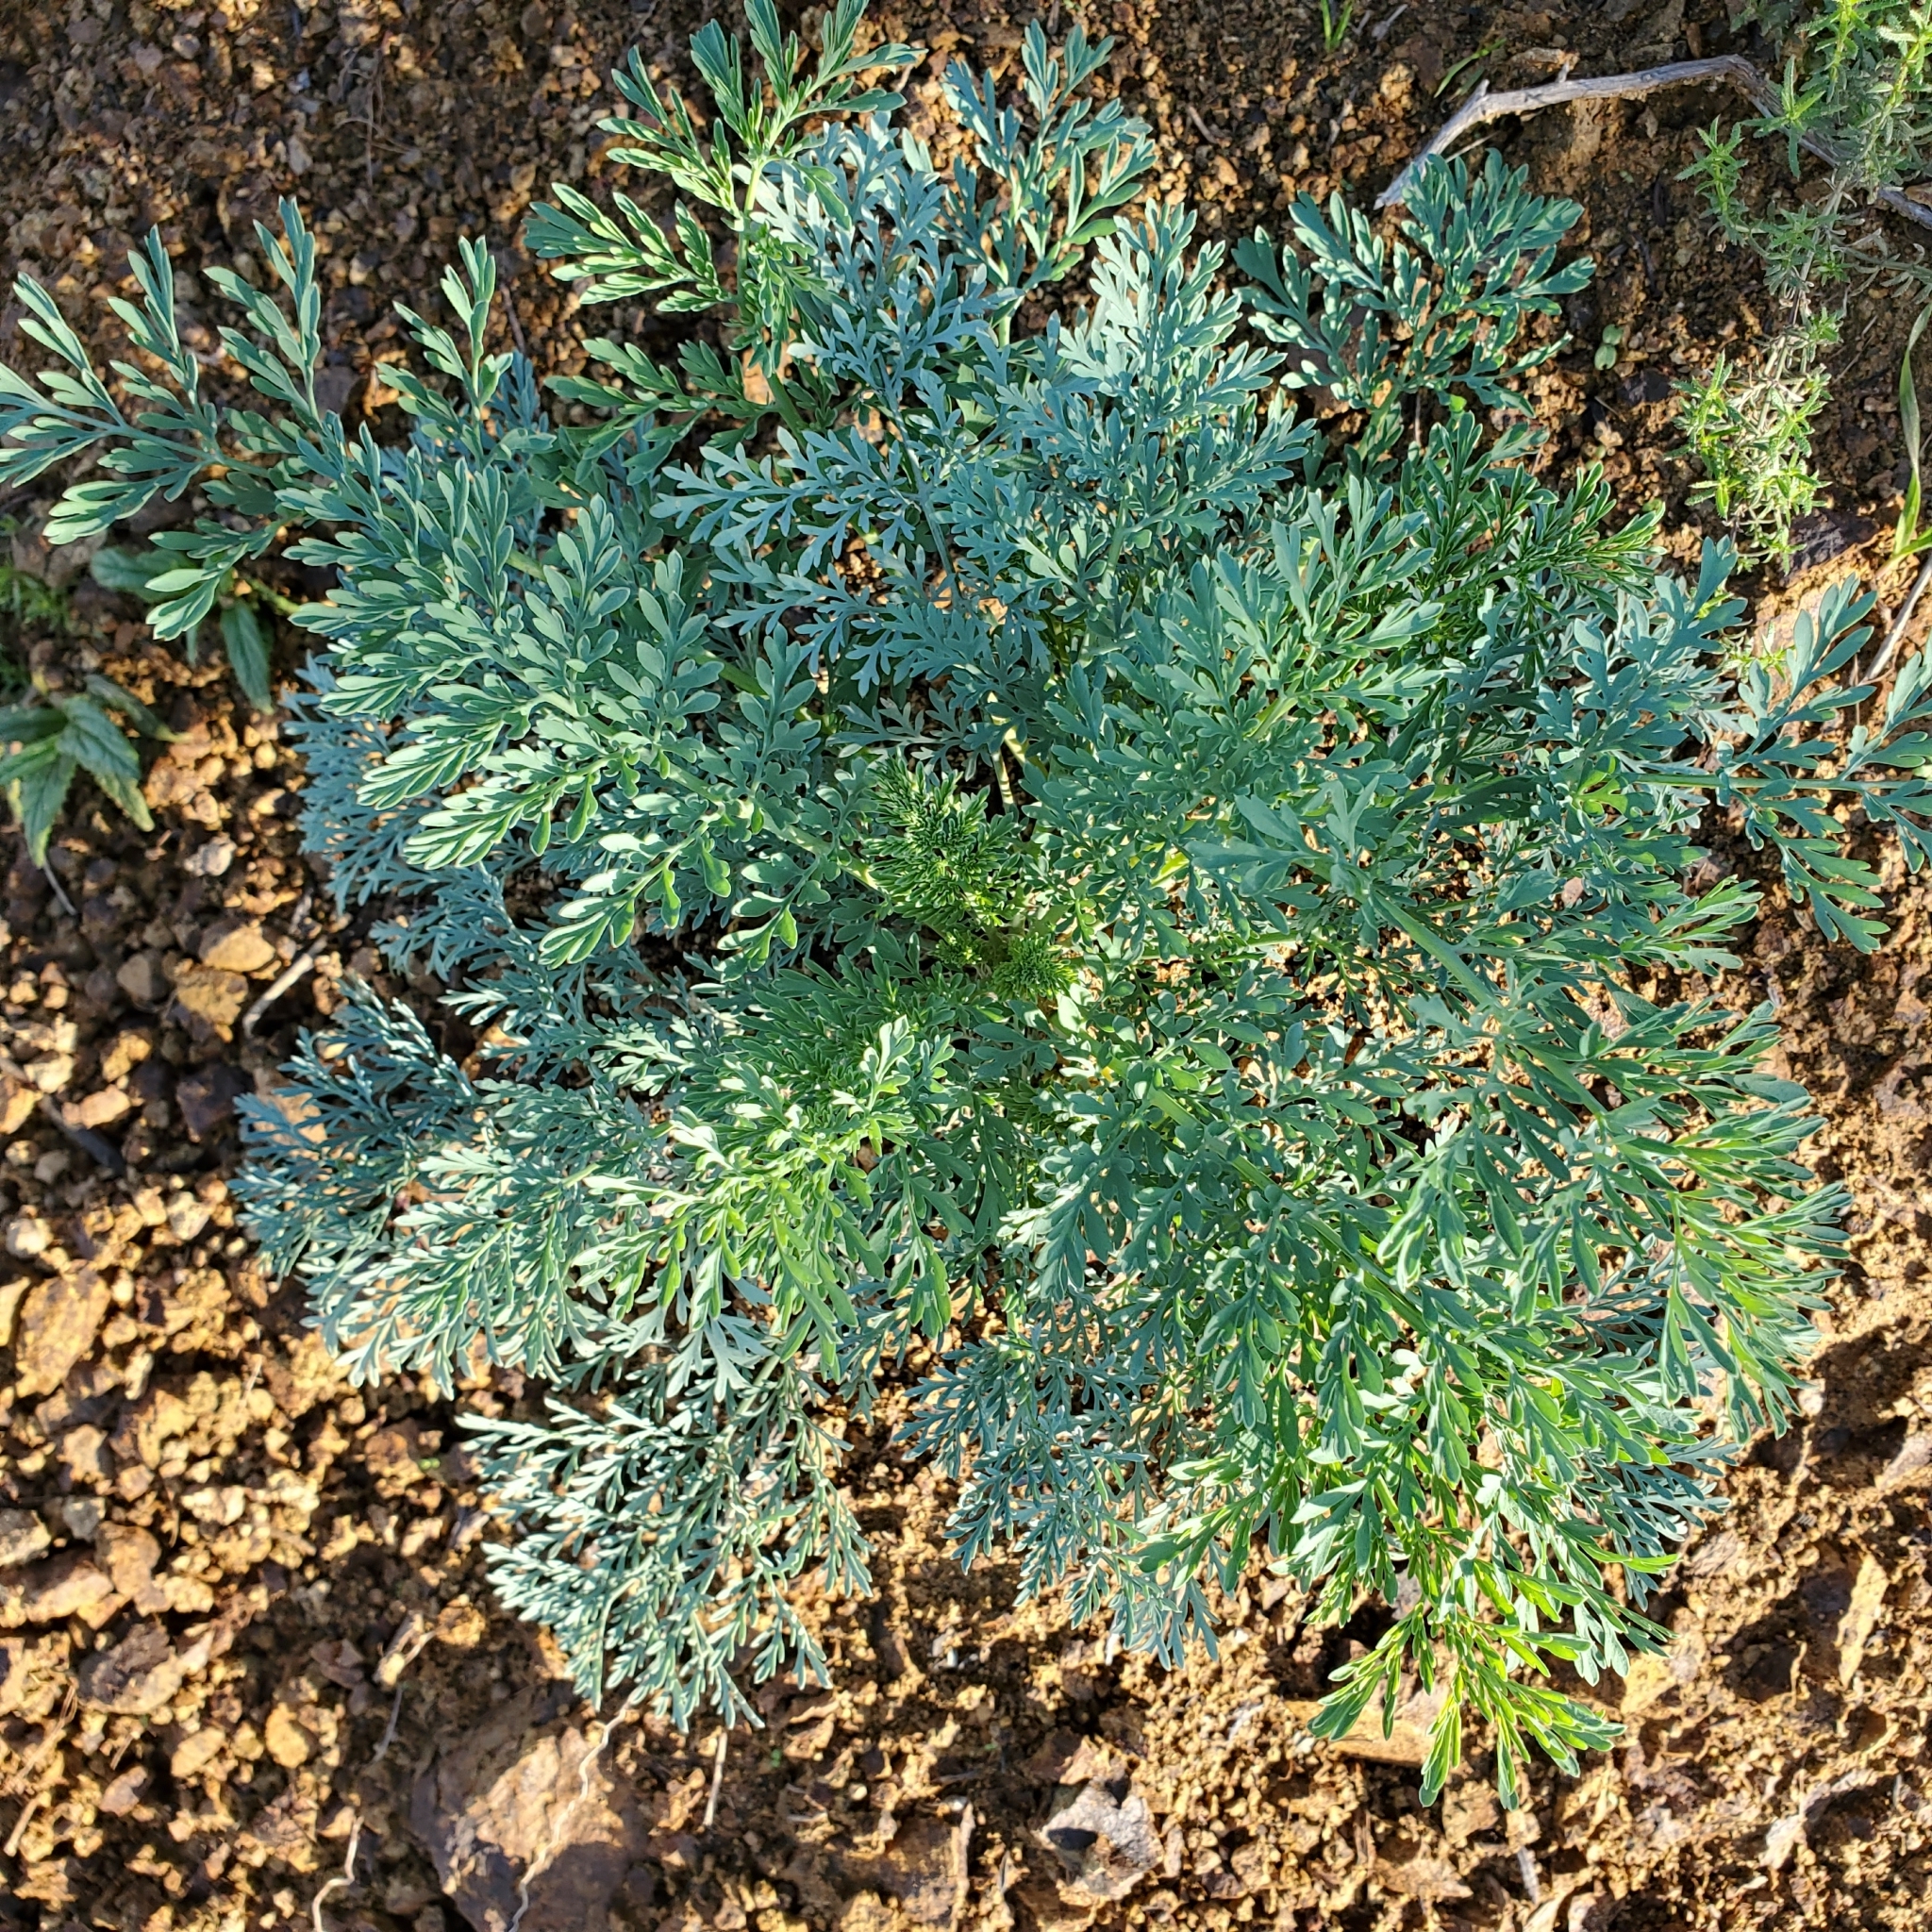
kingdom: Plantae
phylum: Tracheophyta
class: Magnoliopsida
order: Ranunculales
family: Papaveraceae
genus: Ehrendorferia
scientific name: Ehrendorferia ochroleuca
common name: White eardrops
